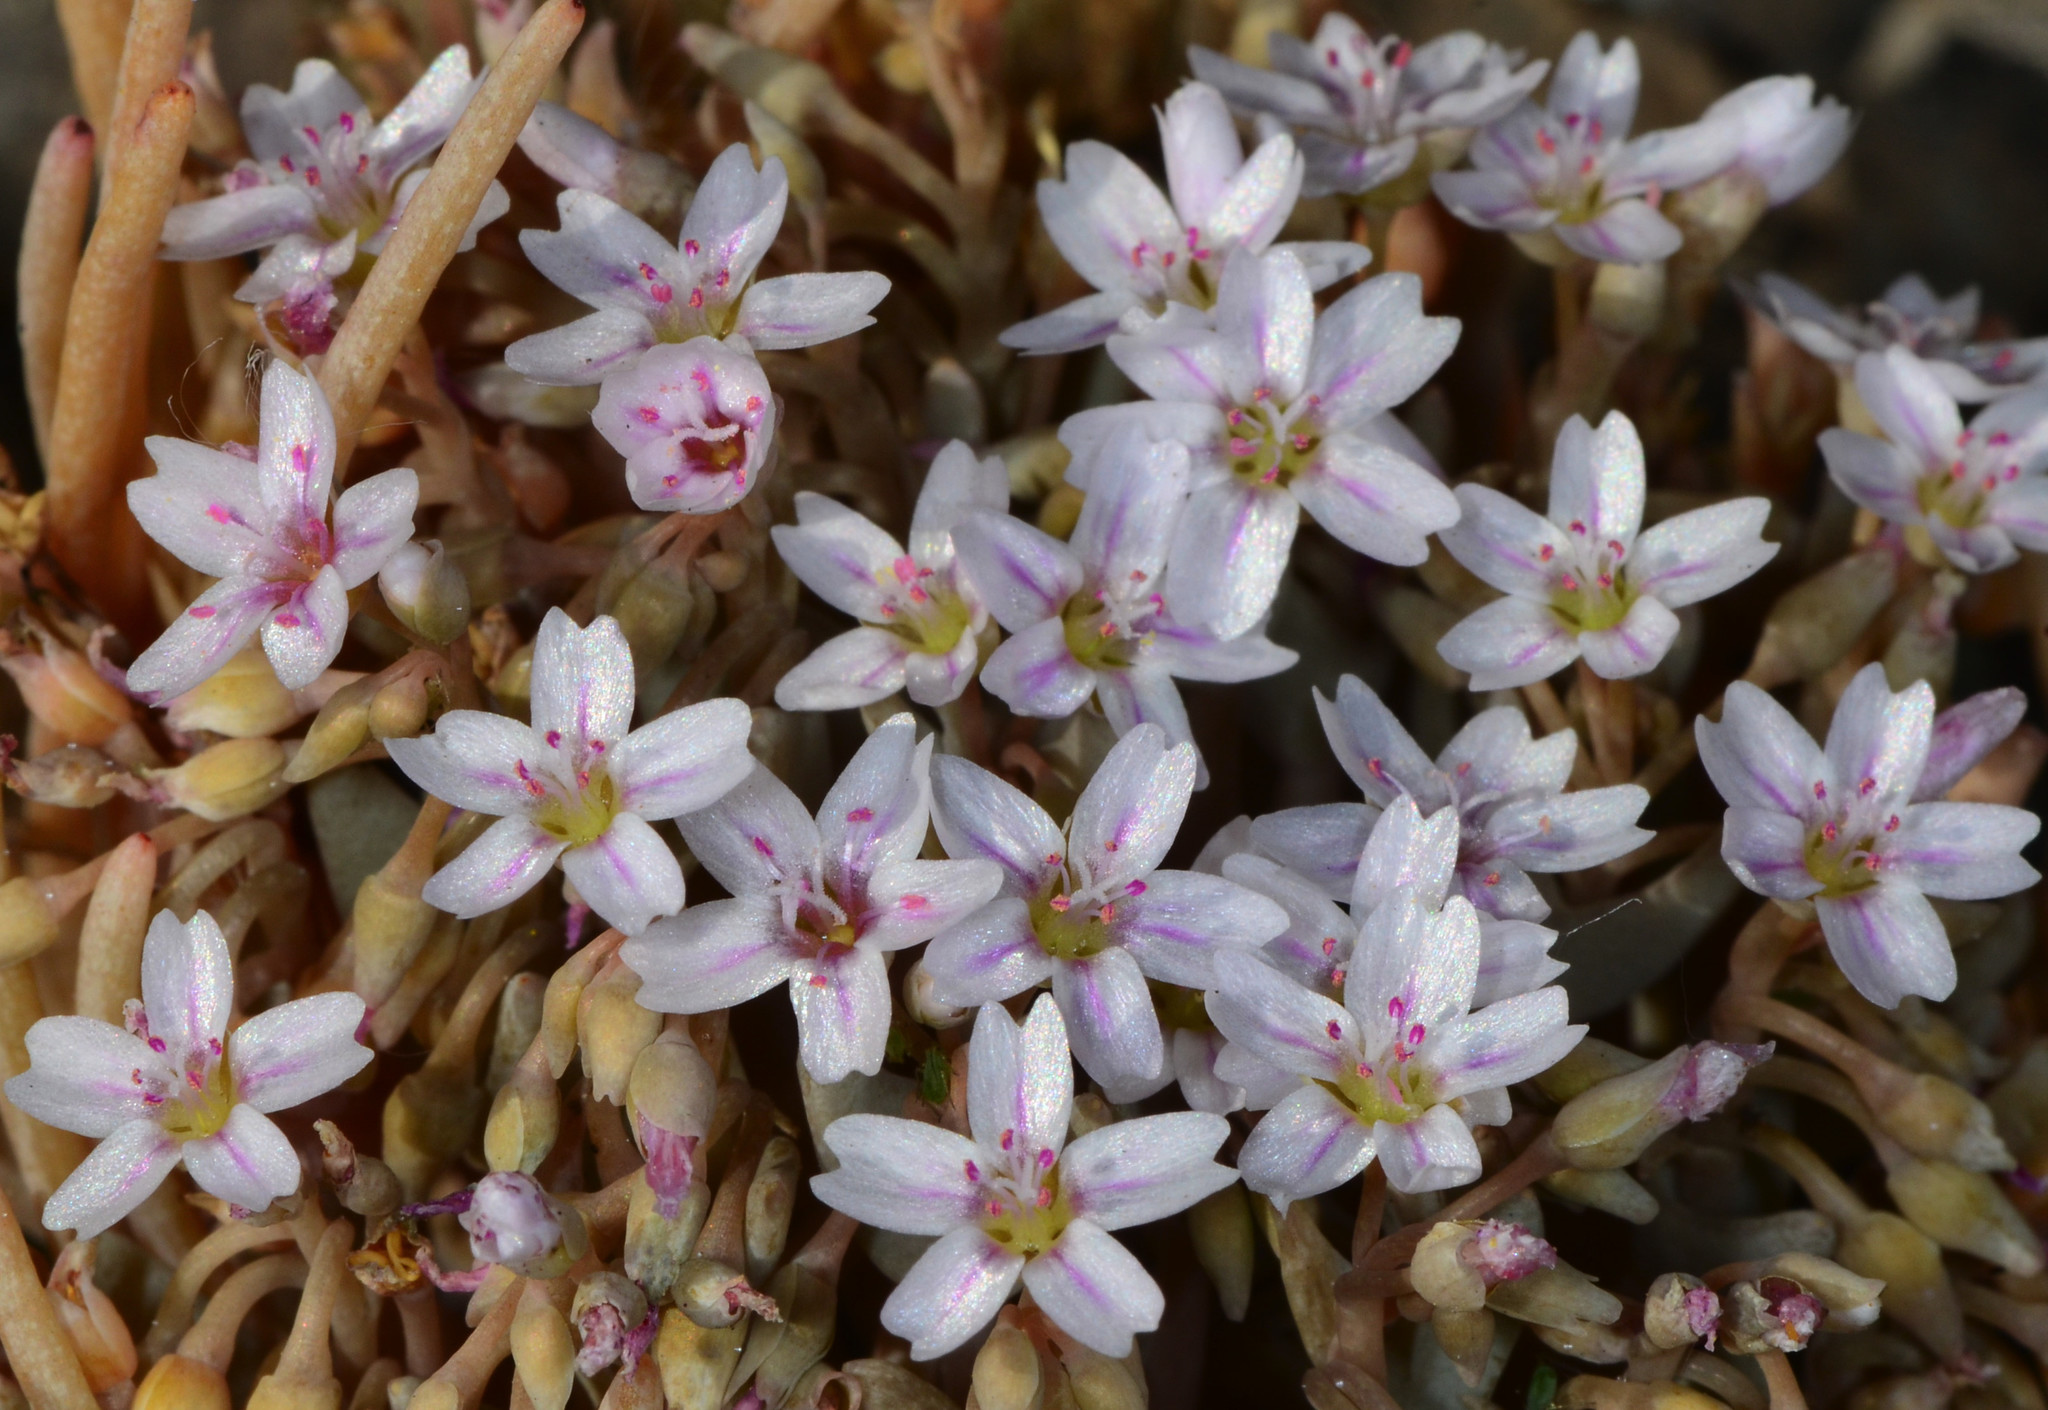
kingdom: Plantae
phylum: Tracheophyta
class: Magnoliopsida
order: Caryophyllales
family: Montiaceae
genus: Claytonia
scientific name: Claytonia exigua
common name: Pale spring beauty
